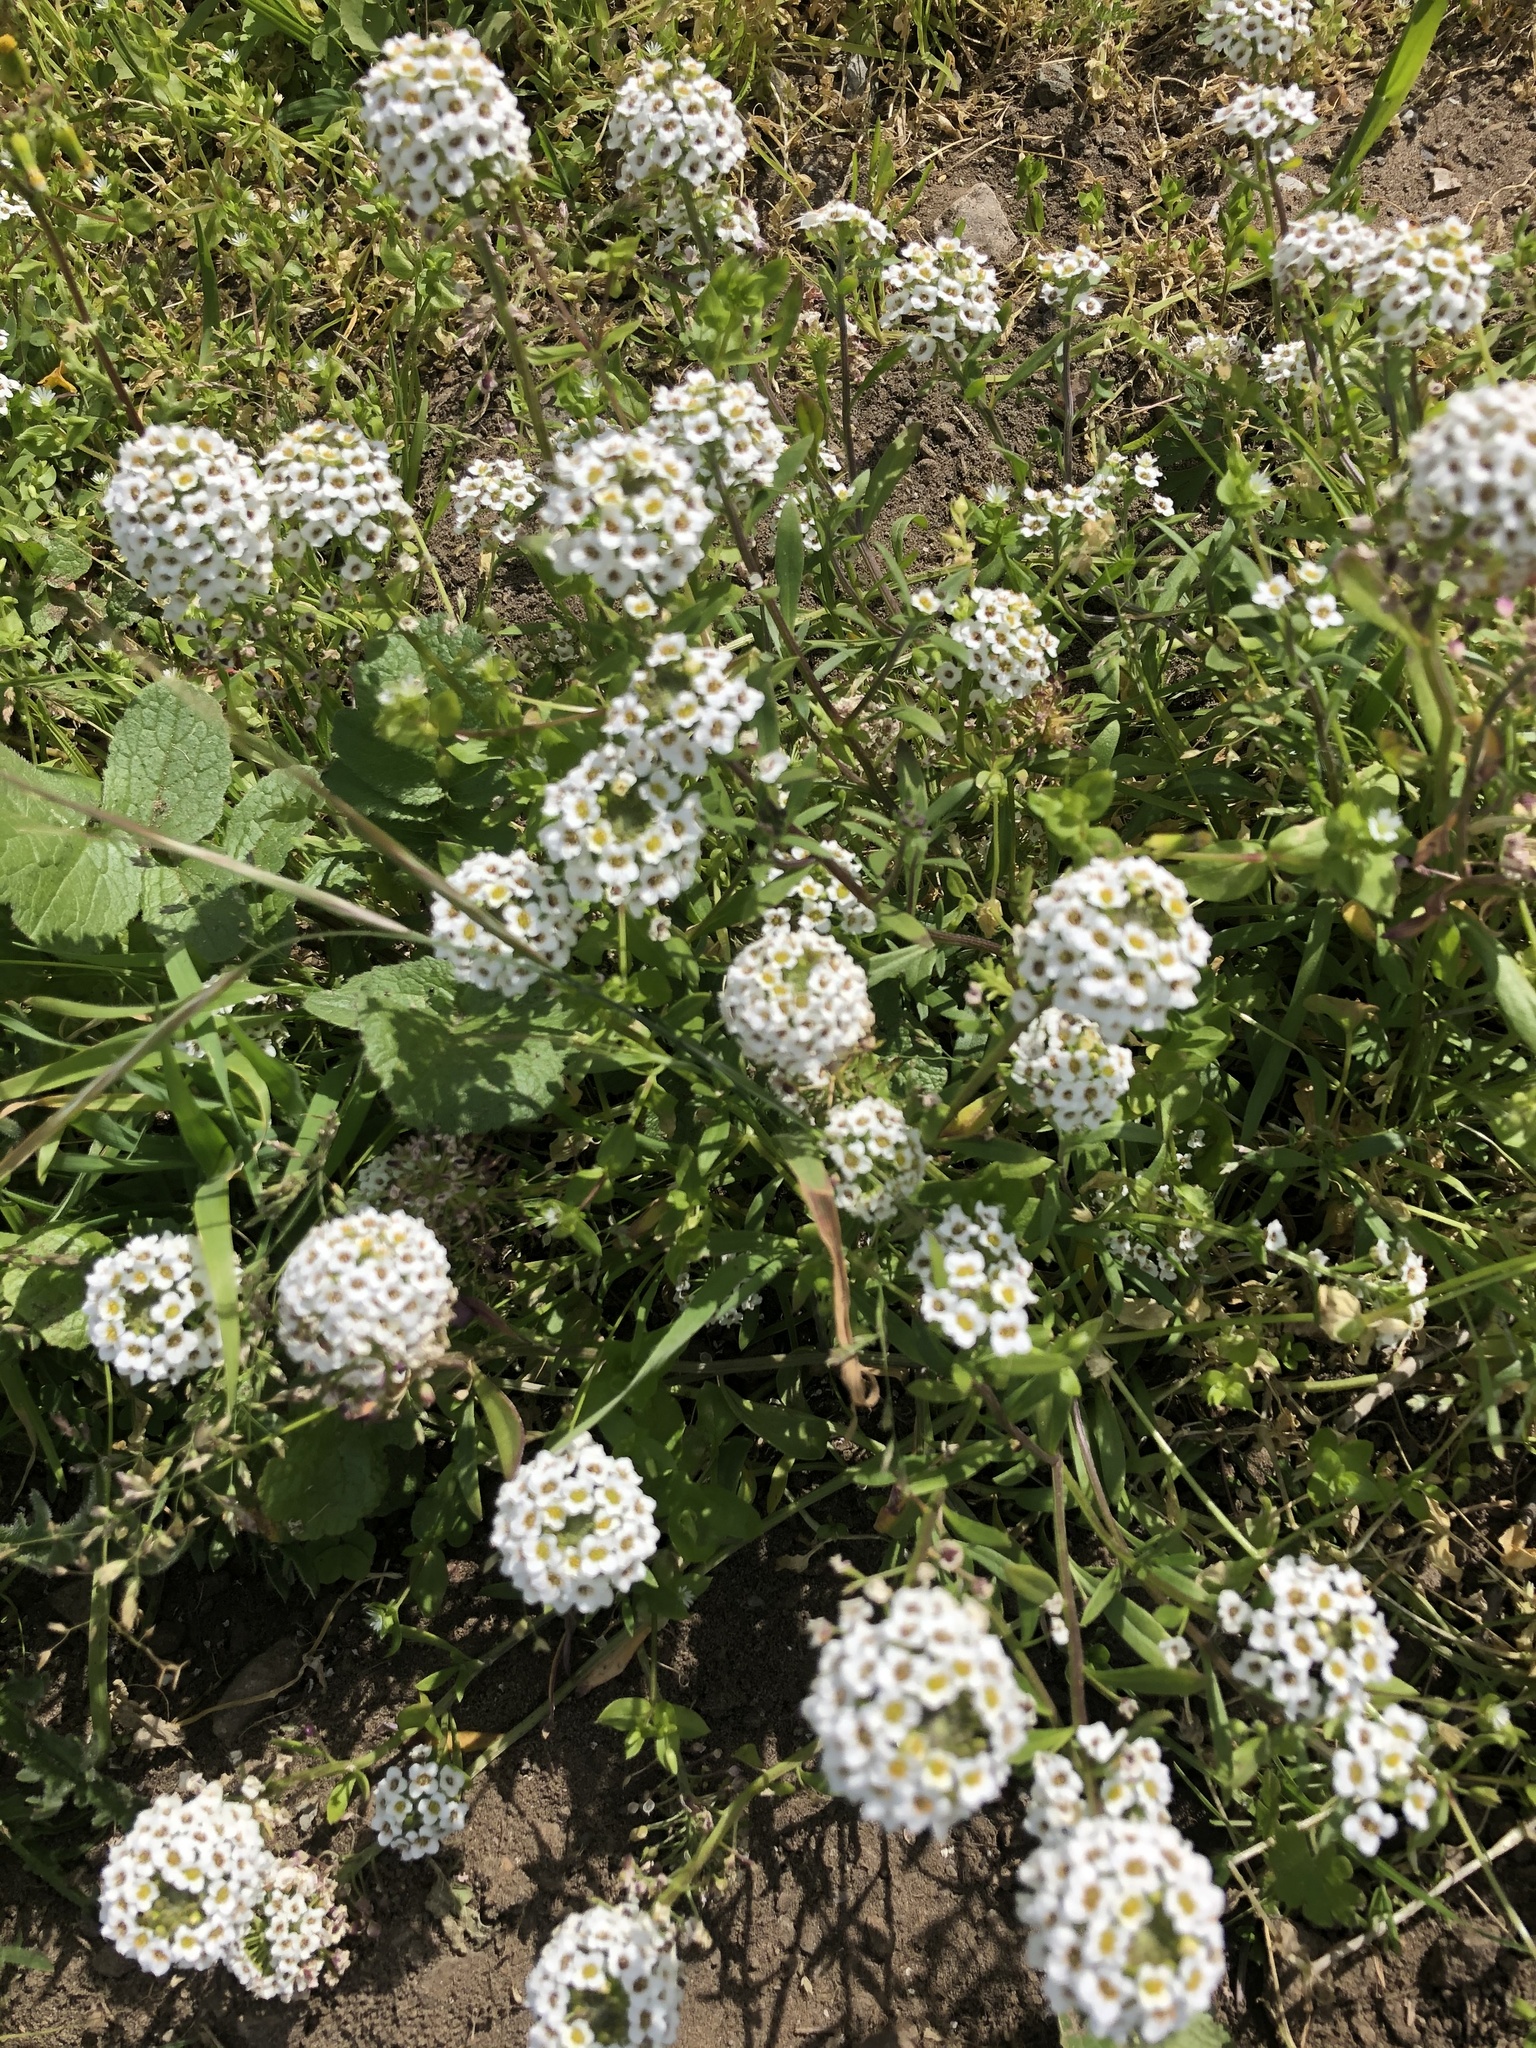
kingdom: Plantae
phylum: Tracheophyta
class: Magnoliopsida
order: Brassicales
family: Brassicaceae
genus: Lobularia
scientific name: Lobularia maritima
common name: Sweet alison
